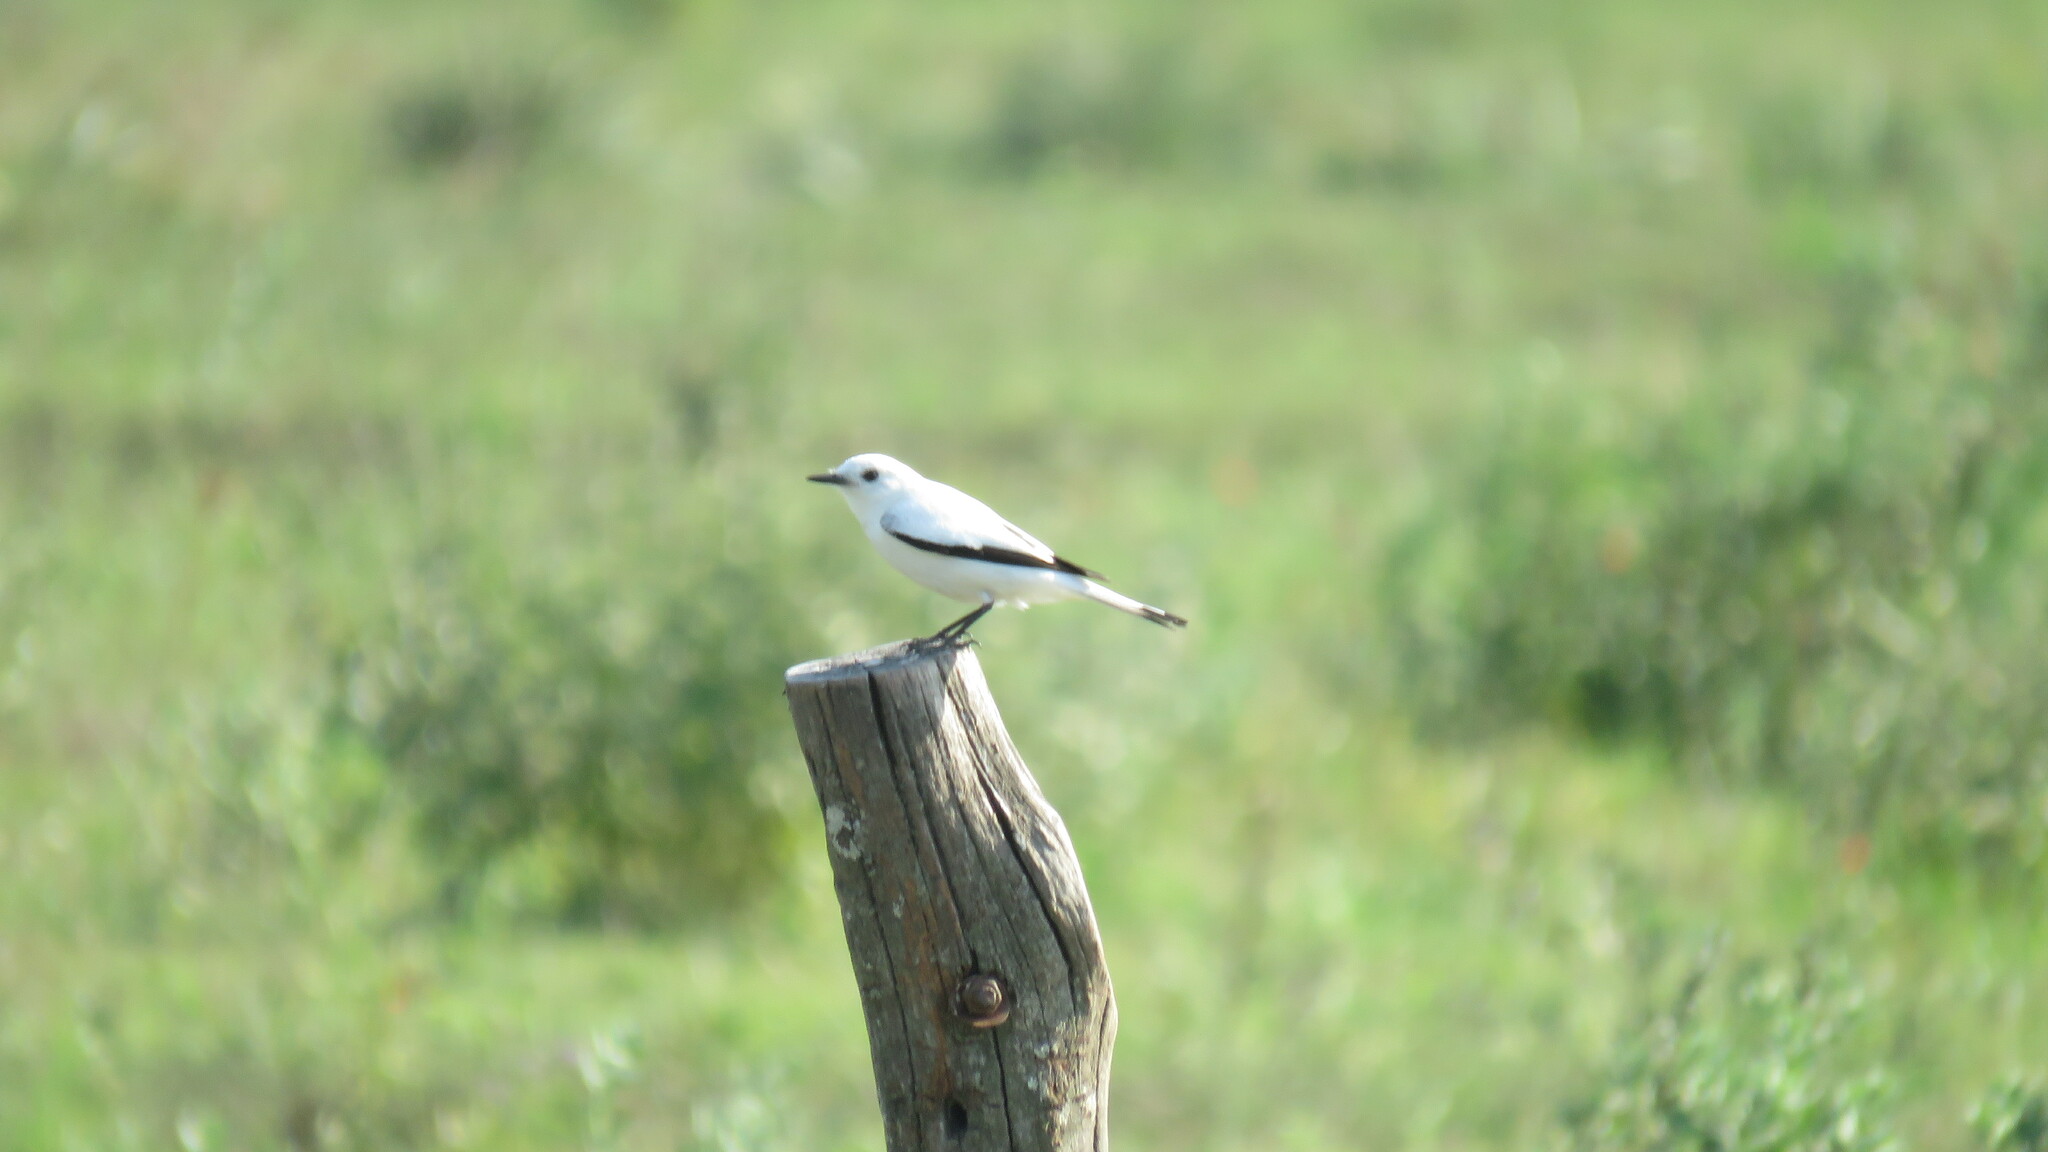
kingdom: Animalia
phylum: Chordata
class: Aves
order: Passeriformes
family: Tyrannidae
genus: Xolmis
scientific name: Xolmis irupero
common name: White monjita
